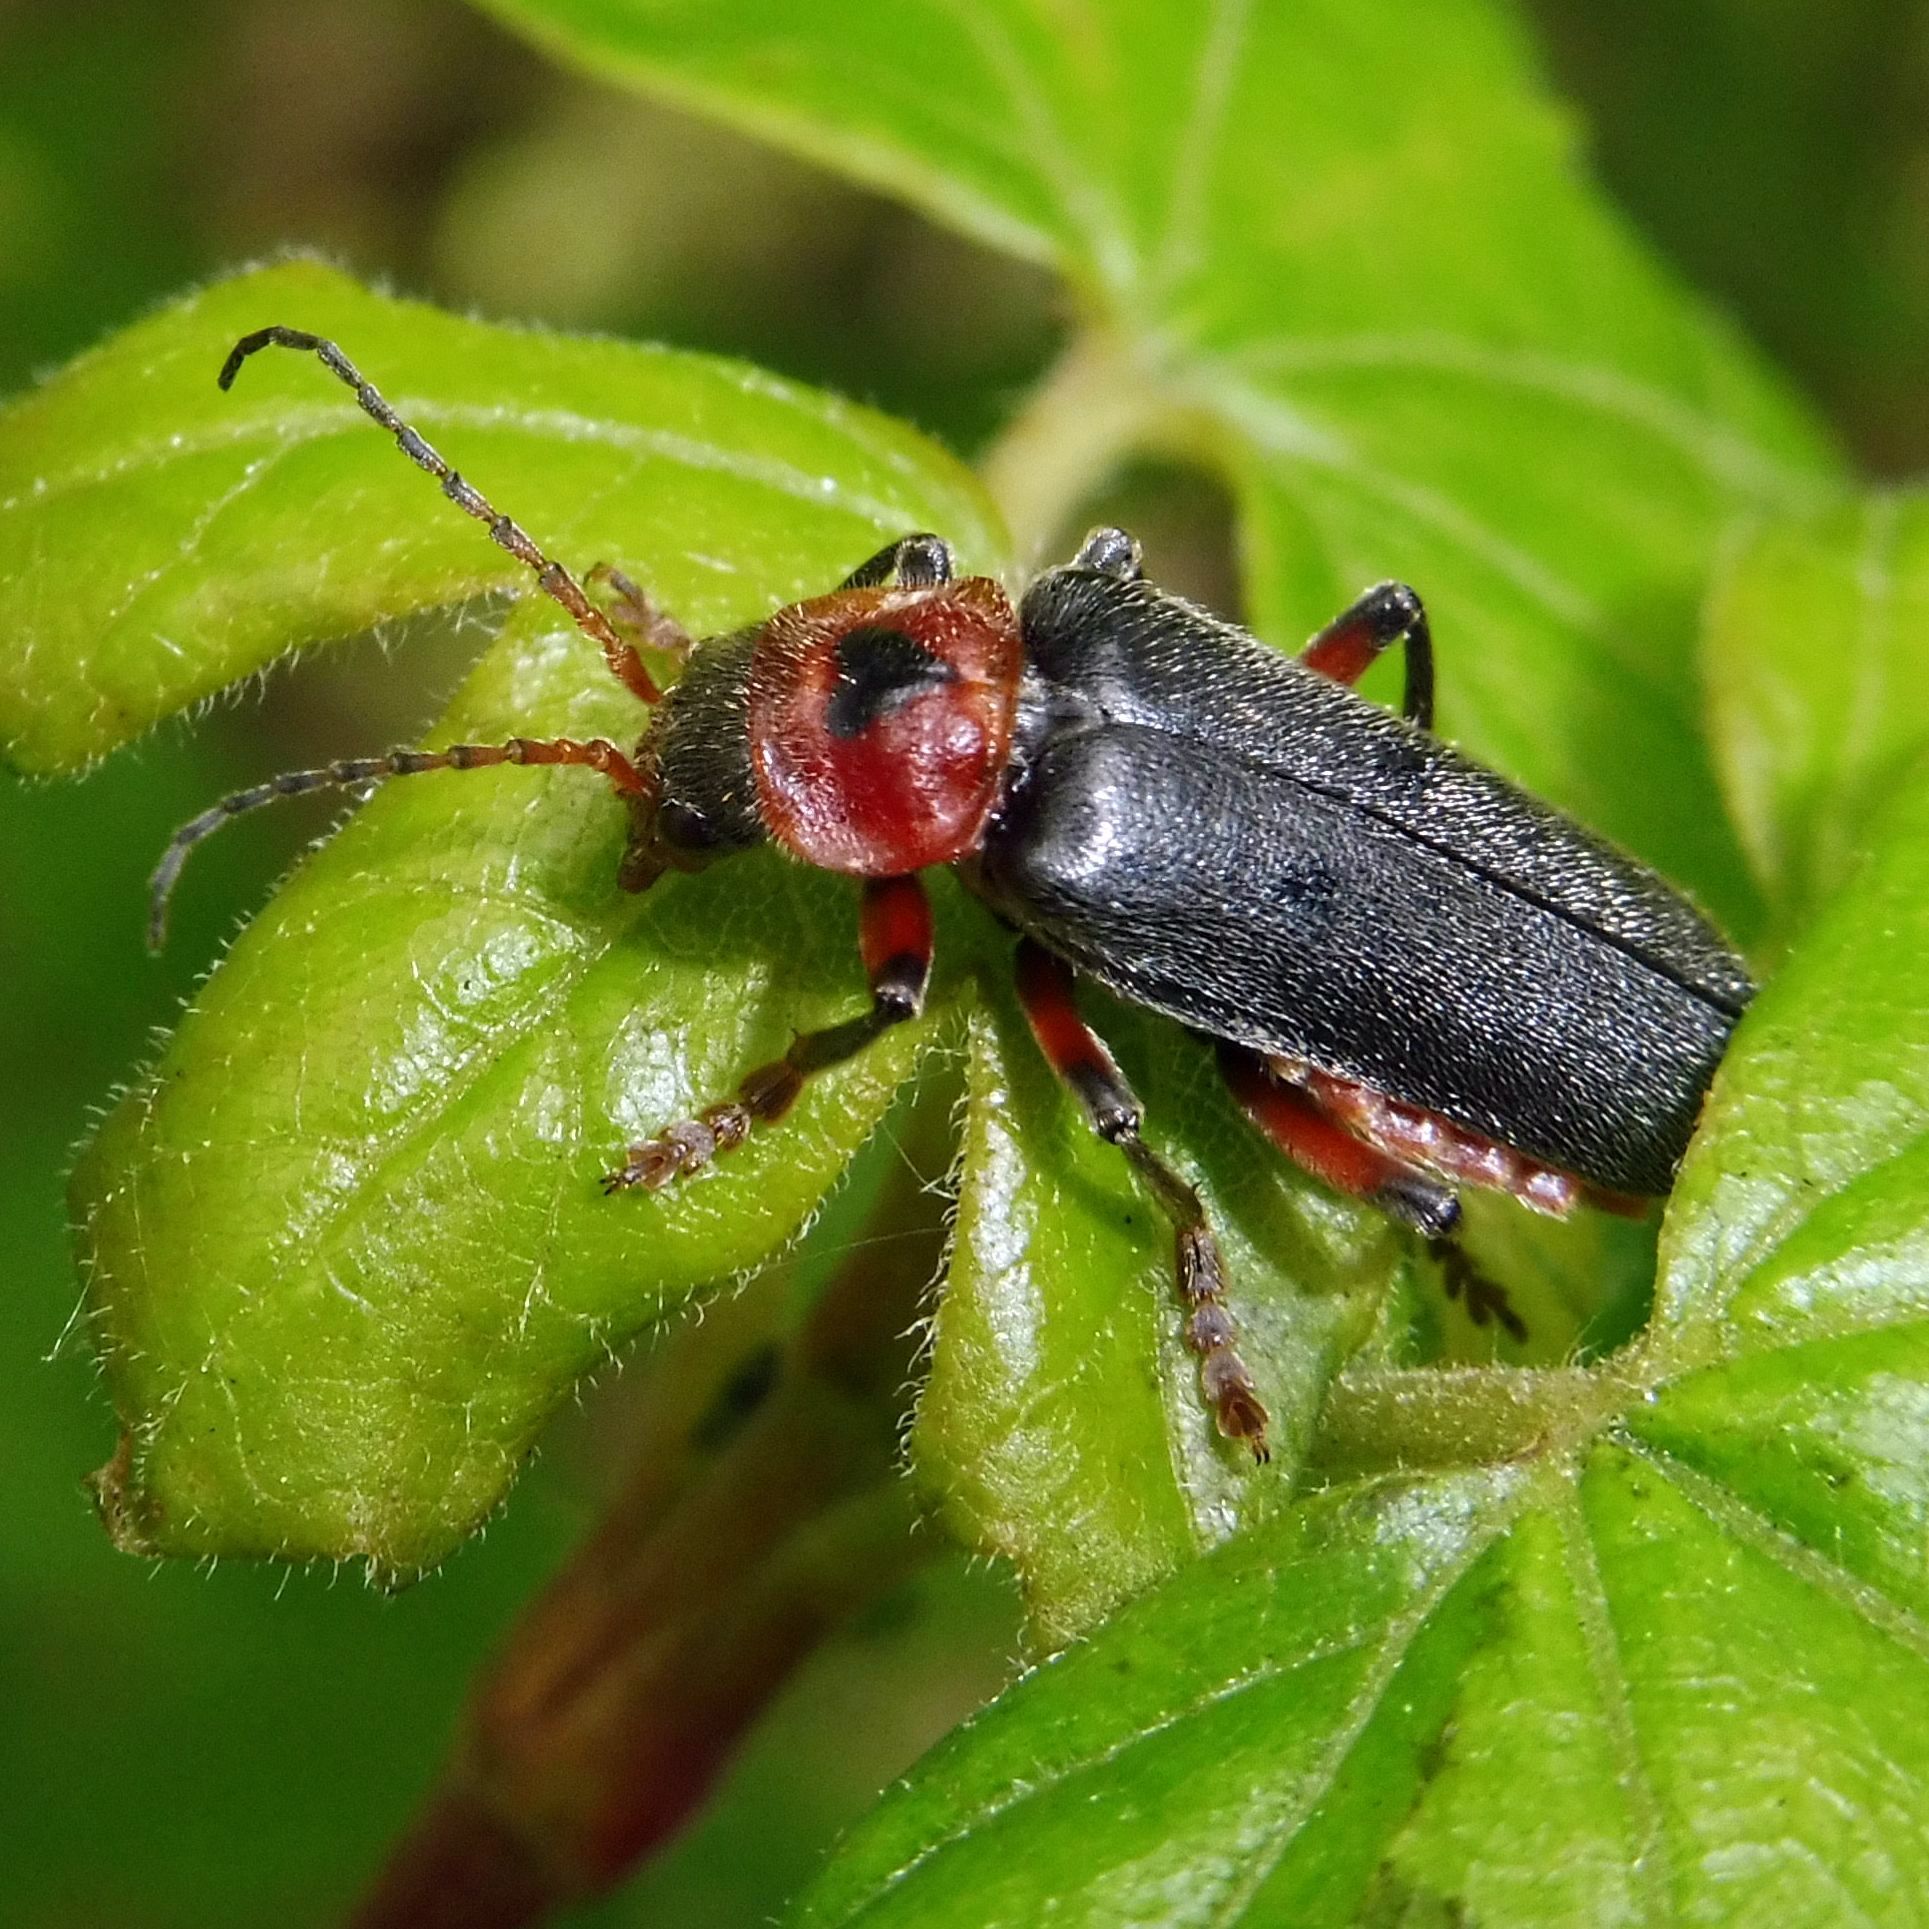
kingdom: Animalia
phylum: Arthropoda
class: Insecta
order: Coleoptera
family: Cantharidae
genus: Cantharis
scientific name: Cantharis rustica
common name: Soldier beetle
